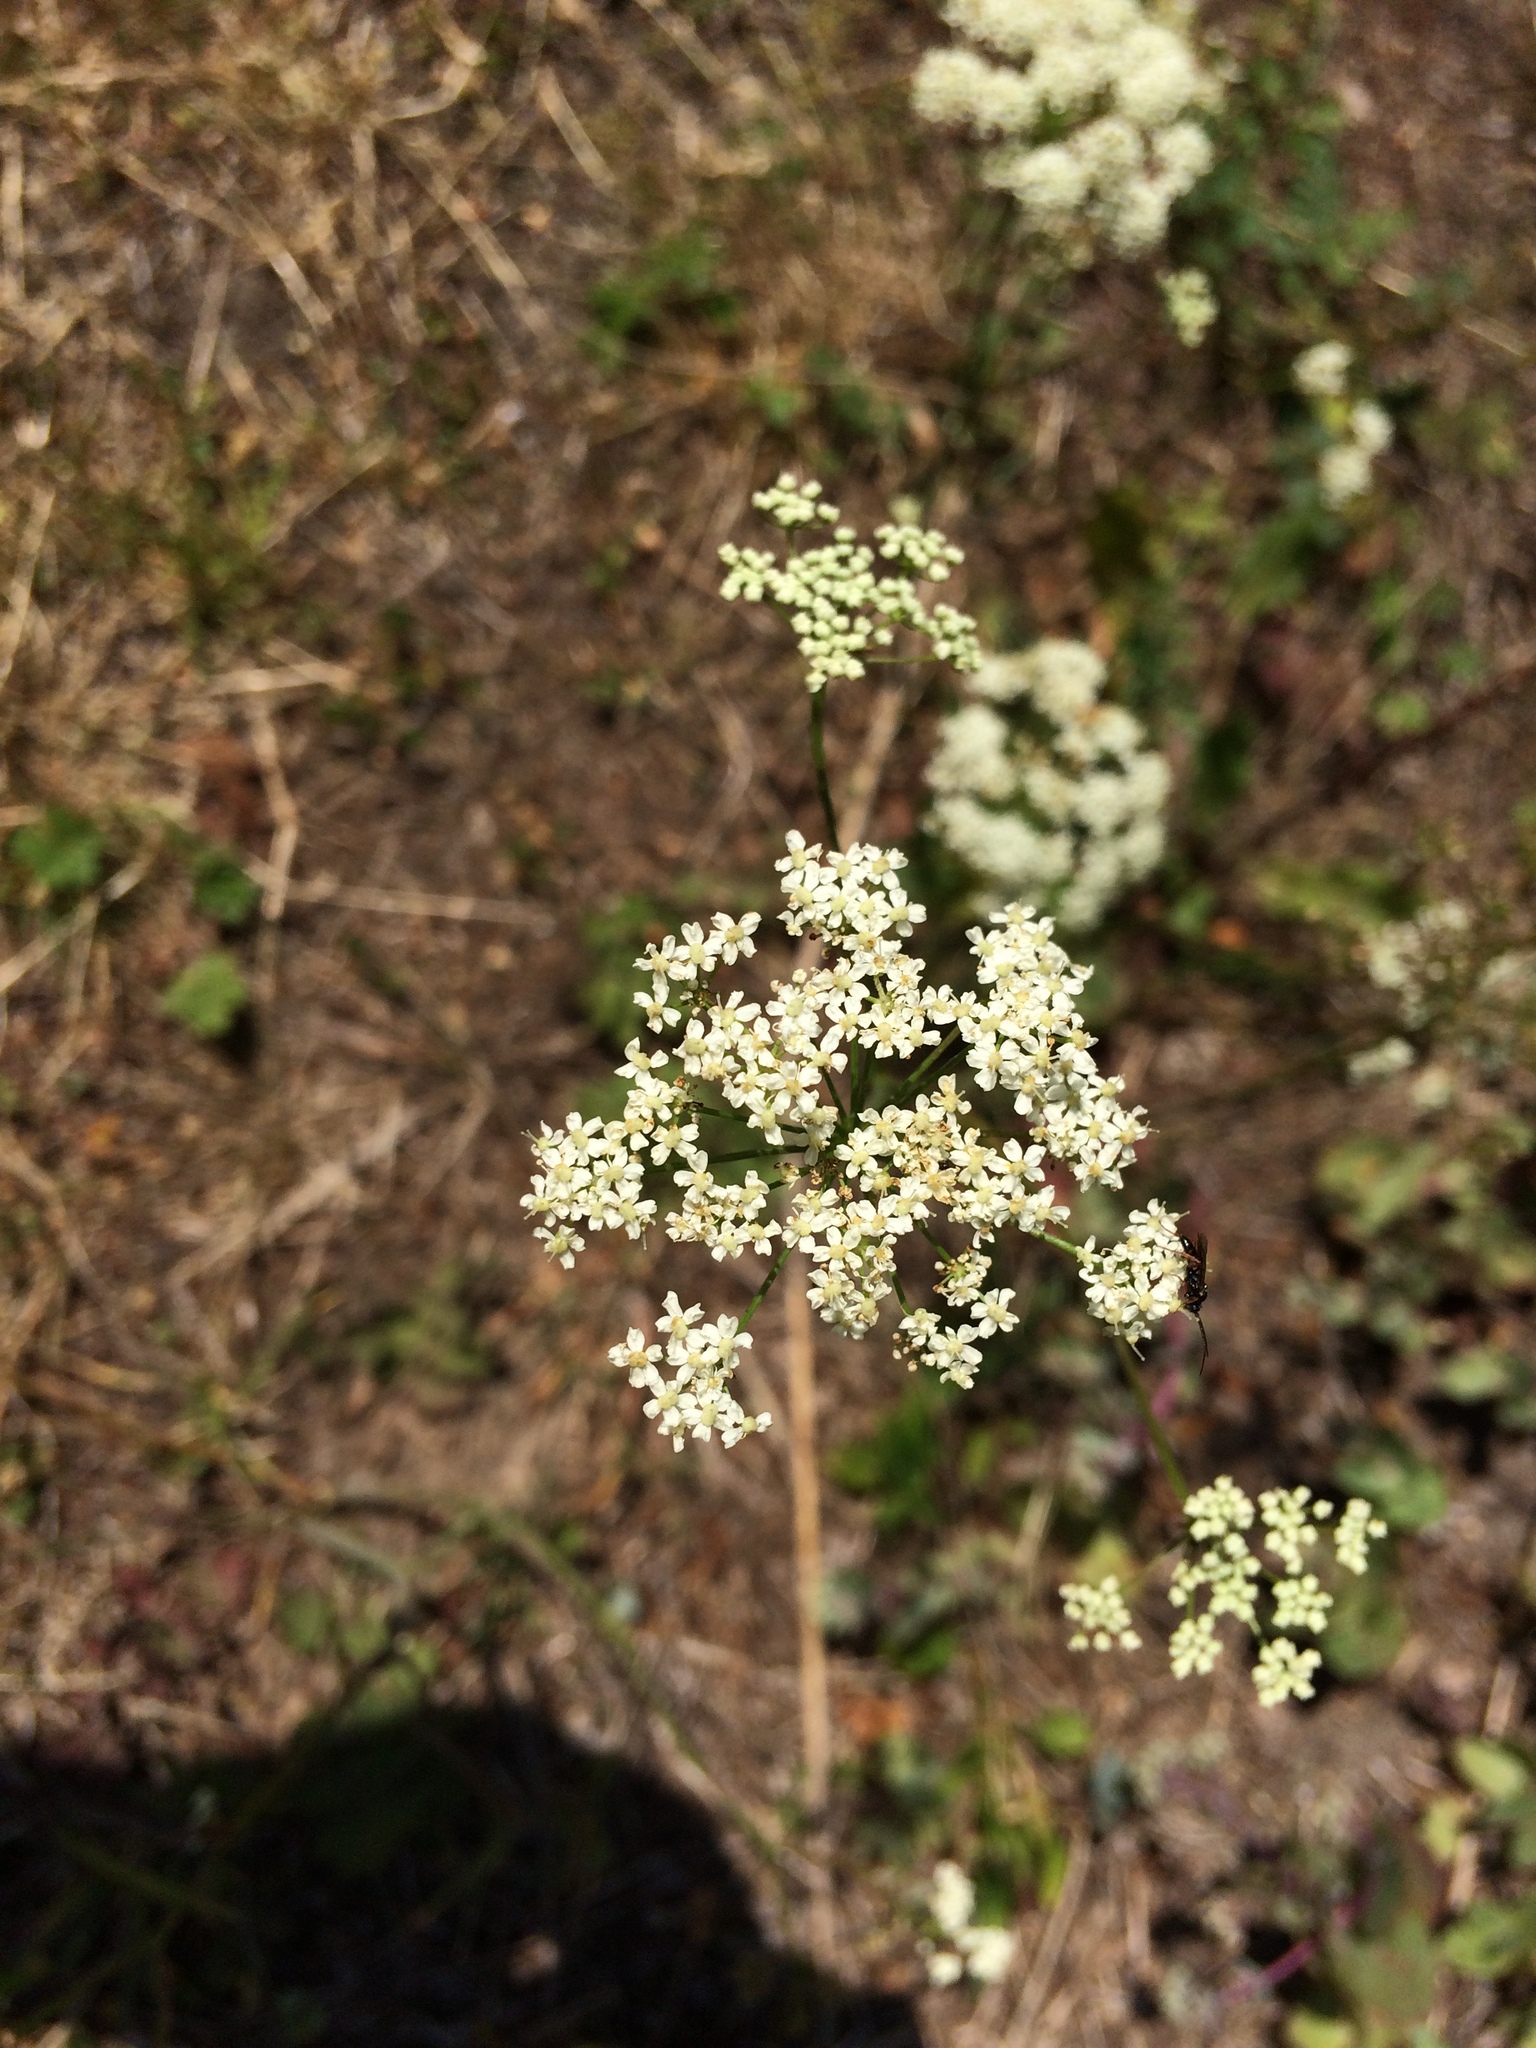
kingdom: Plantae
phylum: Tracheophyta
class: Magnoliopsida
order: Apiales
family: Apiaceae
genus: Pimpinella
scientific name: Pimpinella saxifraga
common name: Burnet-saxifrage
